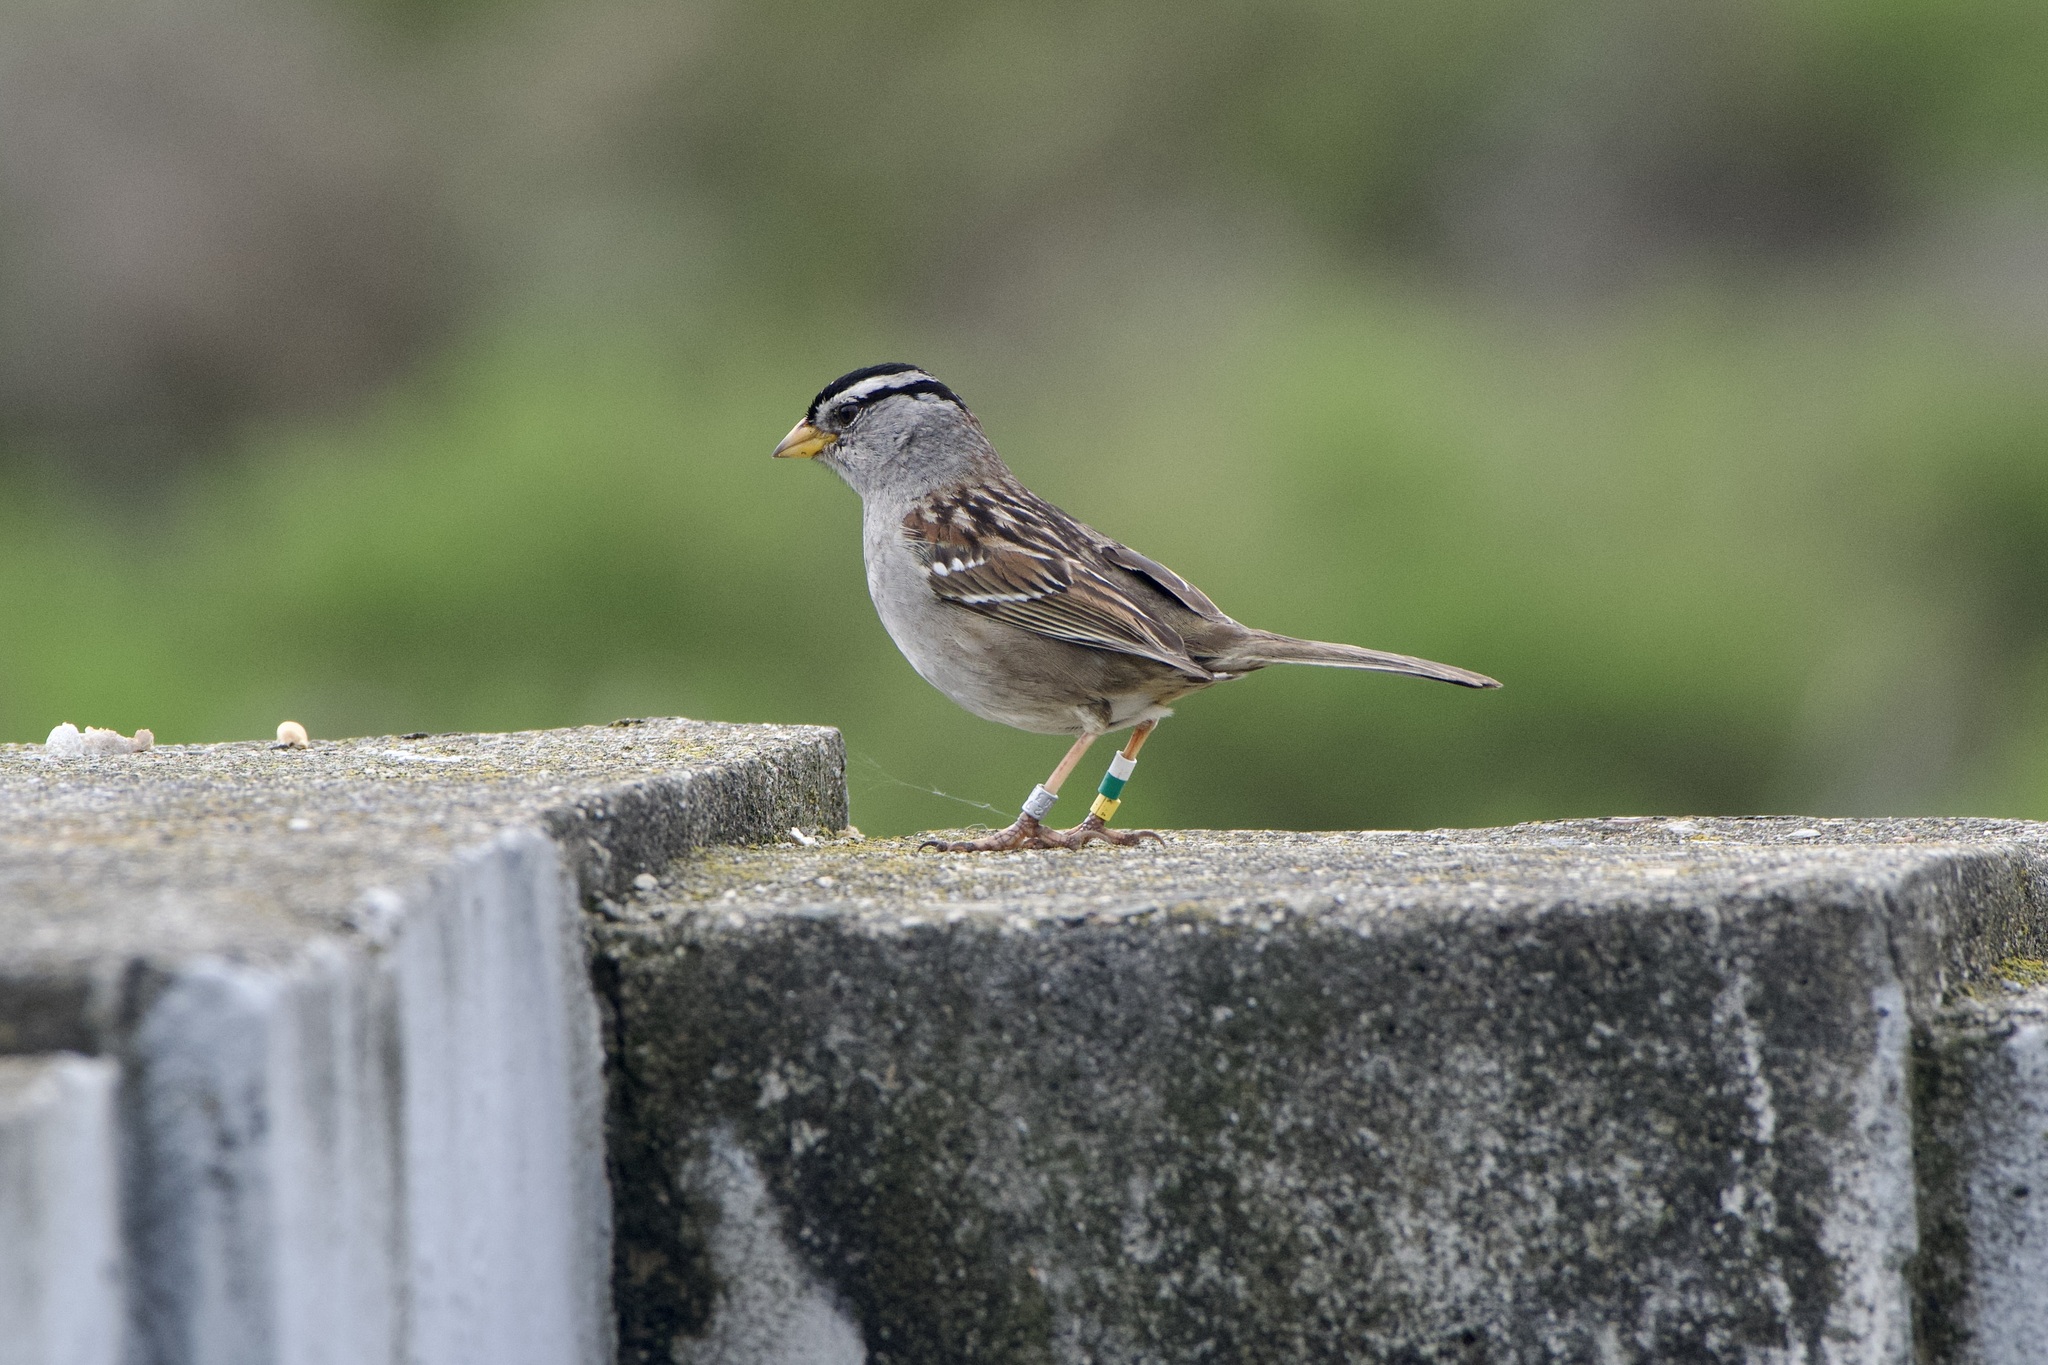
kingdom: Animalia
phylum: Chordata
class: Aves
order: Passeriformes
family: Passerellidae
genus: Zonotrichia
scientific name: Zonotrichia leucophrys
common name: White-crowned sparrow
